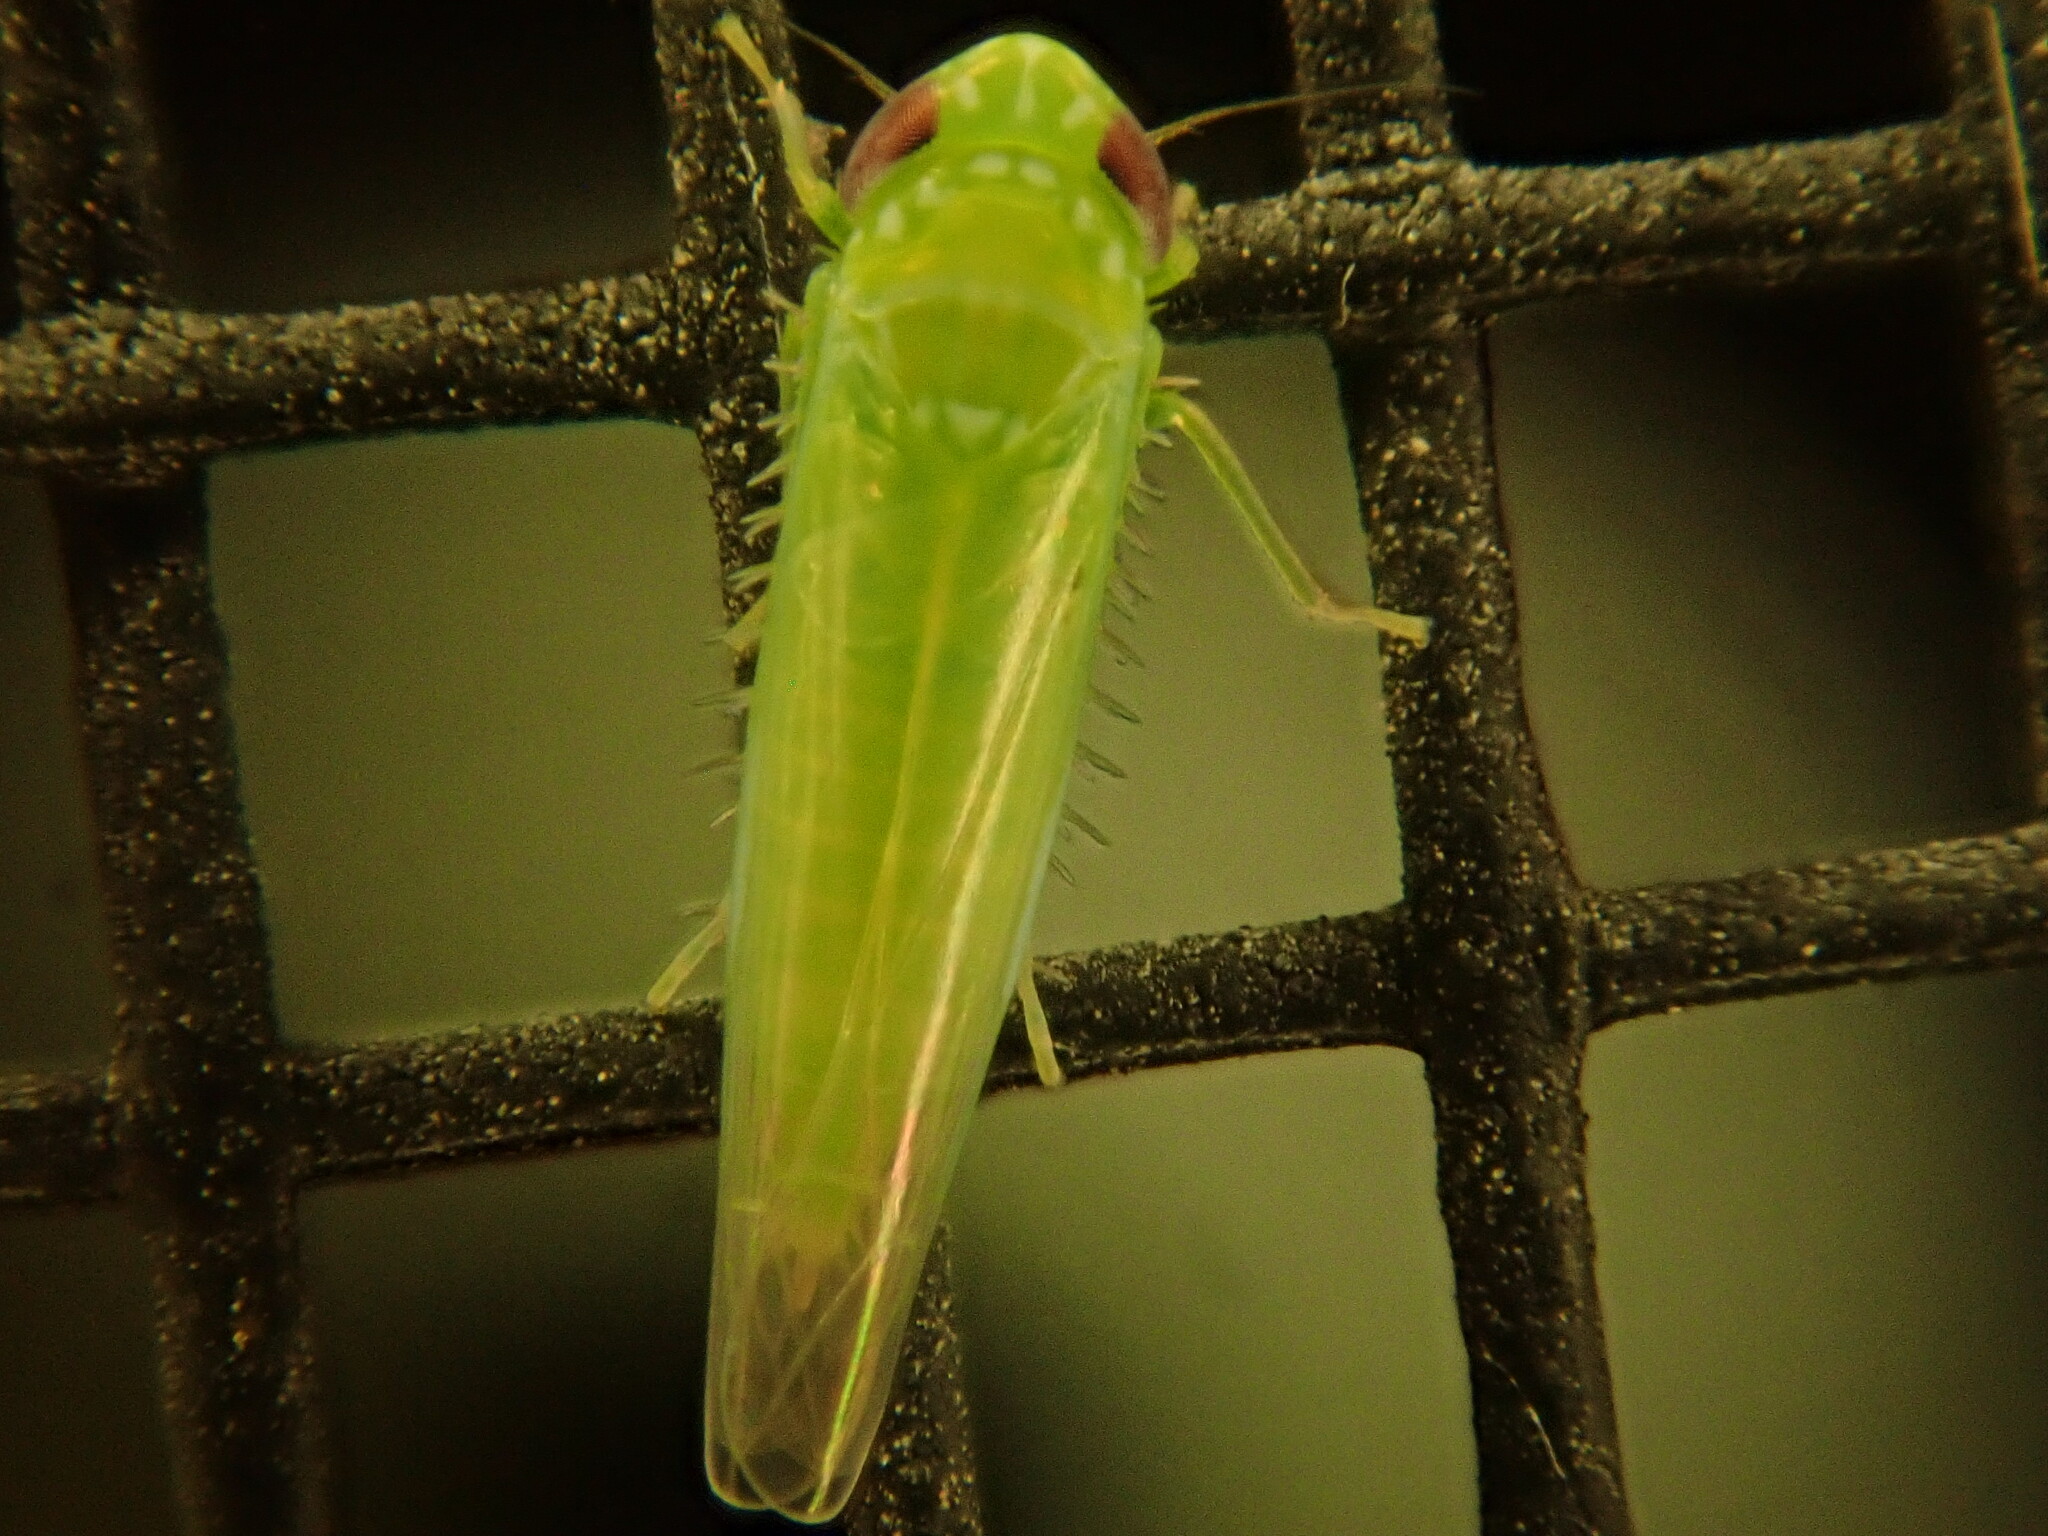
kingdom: Animalia
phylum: Arthropoda
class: Insecta
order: Hemiptera
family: Cicadellidae
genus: Empoasca
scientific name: Empoasca fabae
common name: Potato leafhopper
